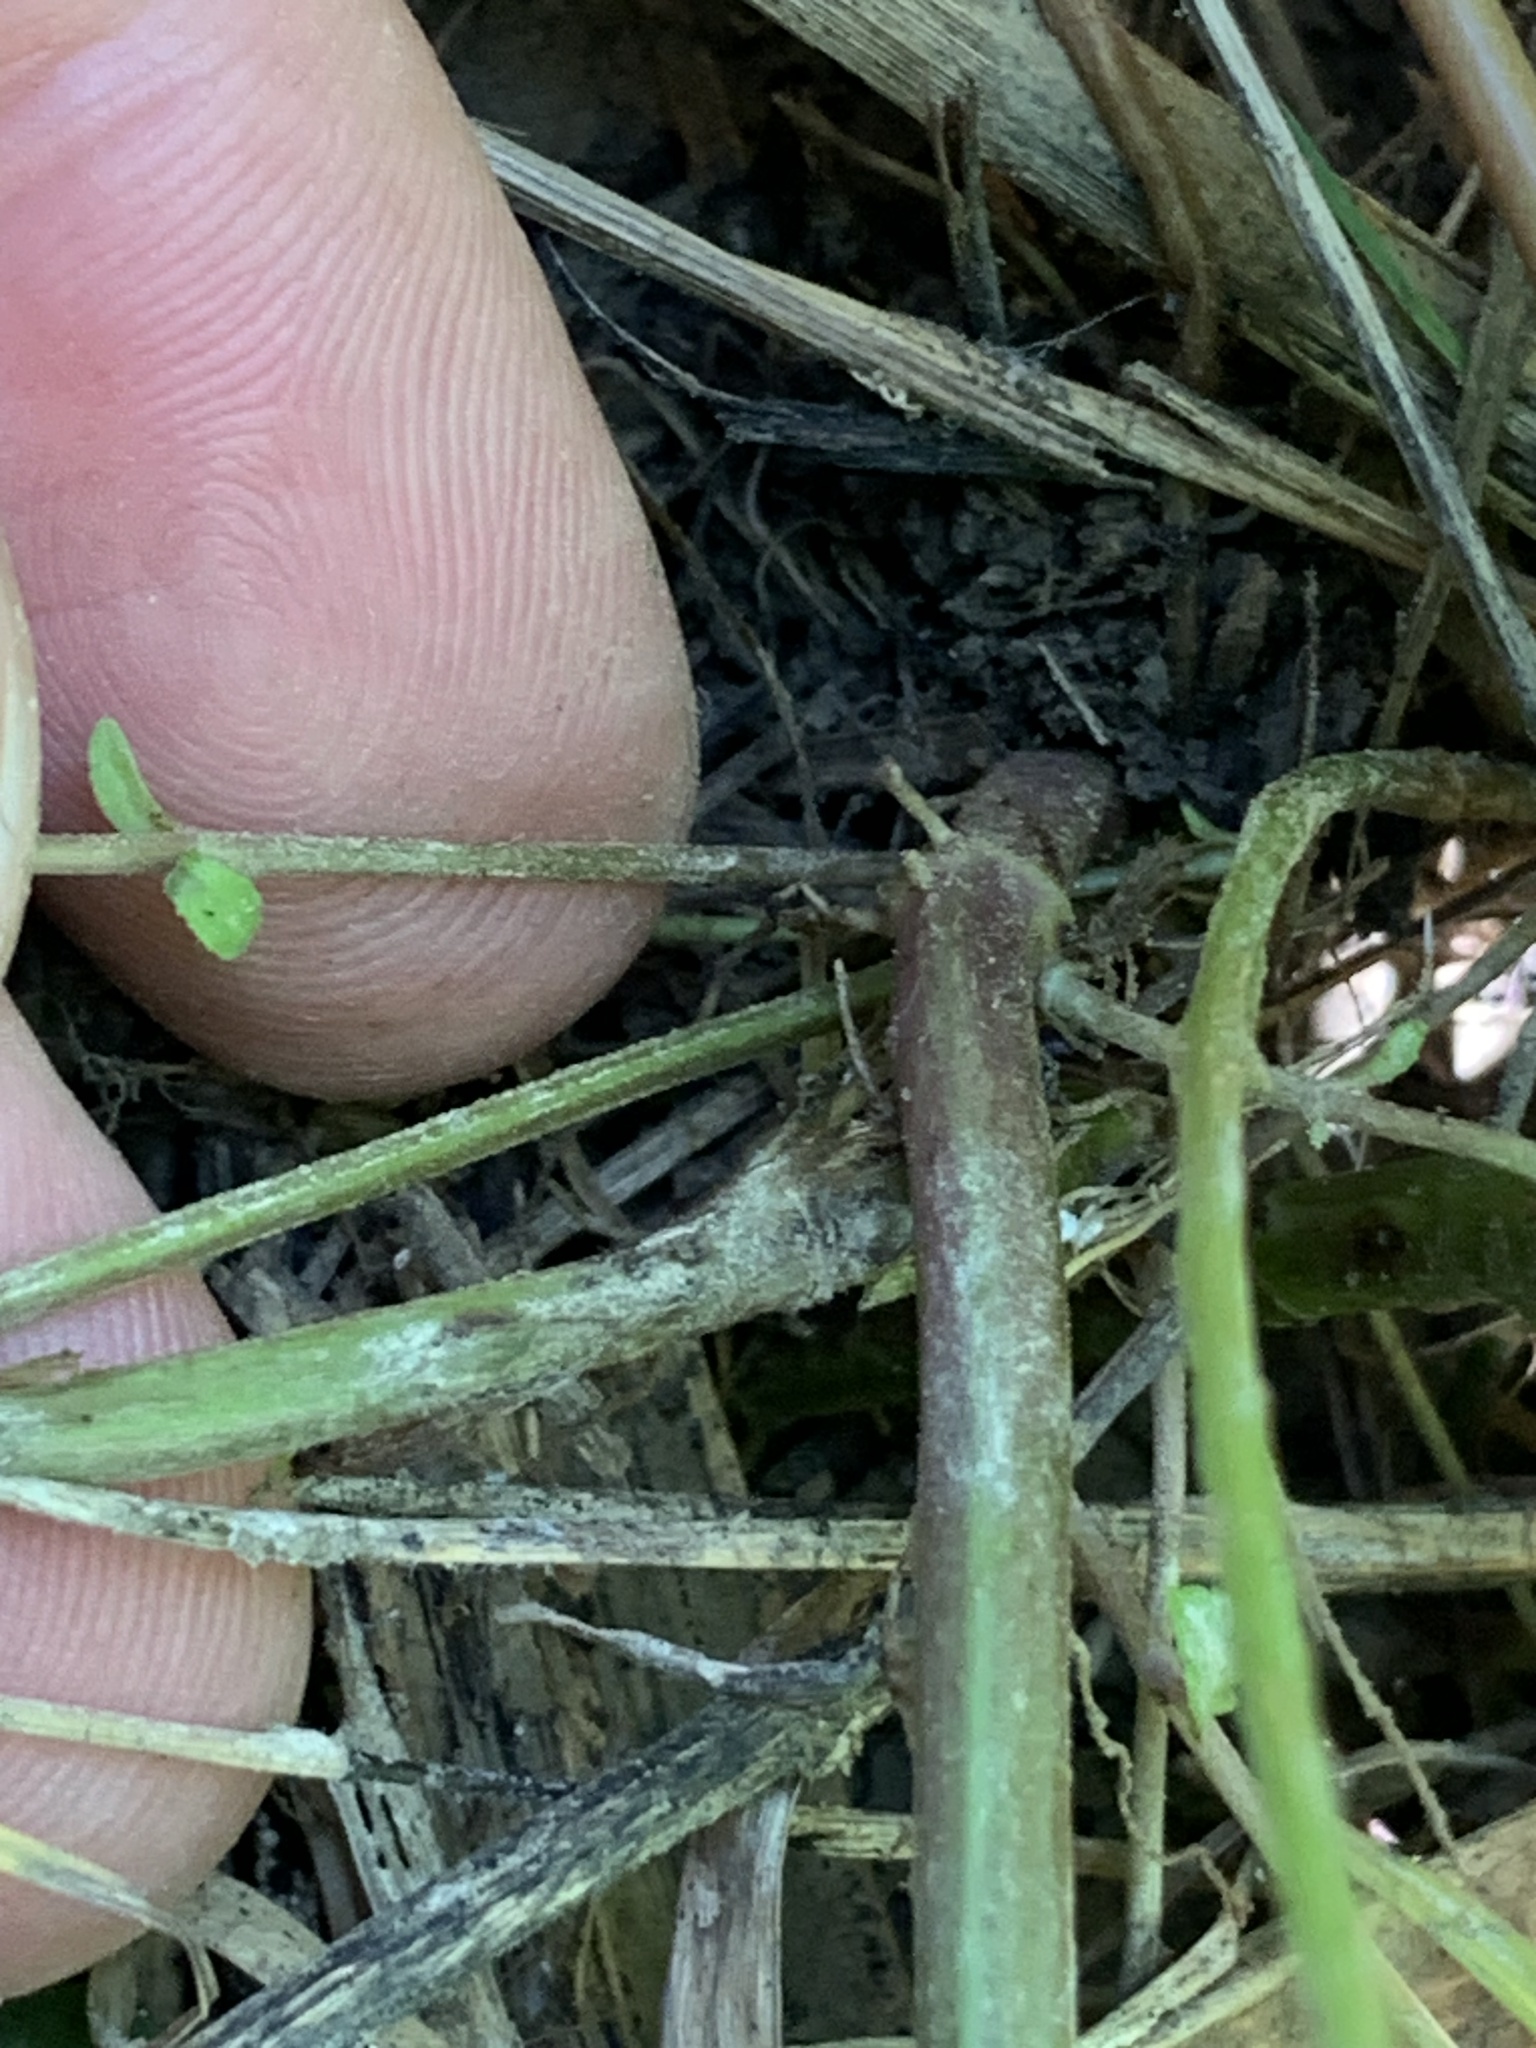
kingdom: Plantae
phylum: Tracheophyta
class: Magnoliopsida
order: Lamiales
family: Lamiaceae
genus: Lycopus
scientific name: Lycopus virginicus
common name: Bugleweed
